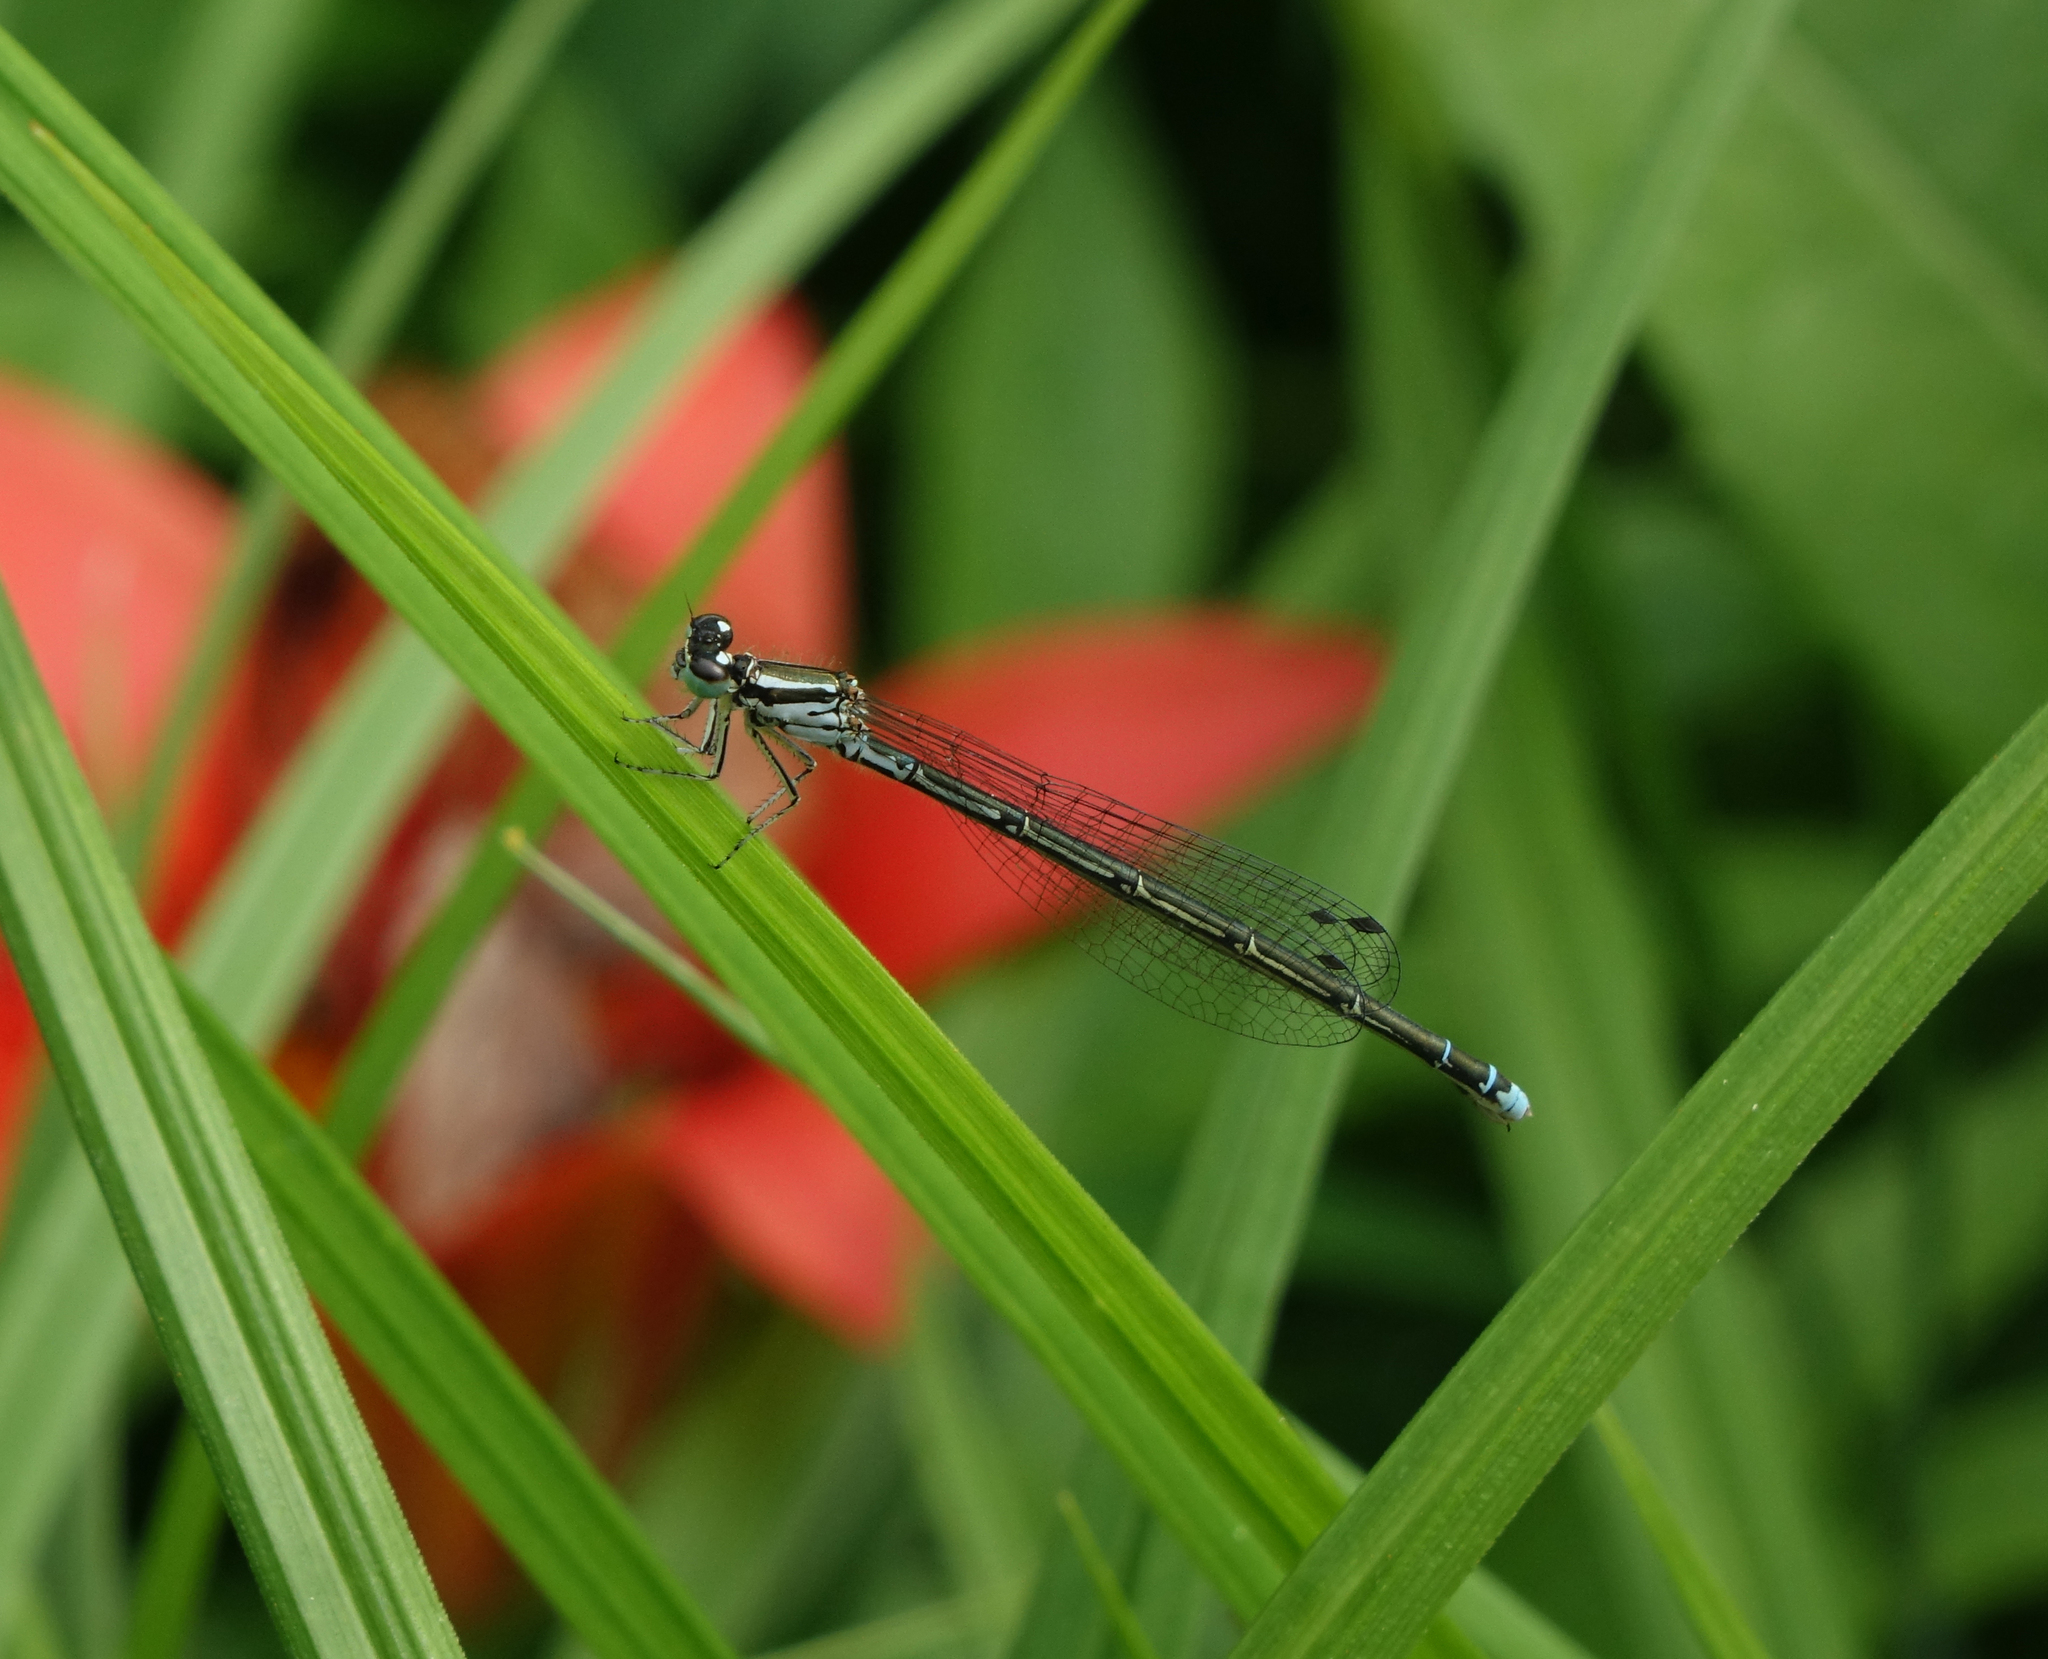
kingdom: Animalia
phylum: Arthropoda
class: Insecta
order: Odonata
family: Coenagrionidae
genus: Coenagrion
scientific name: Coenagrion johanssoni
